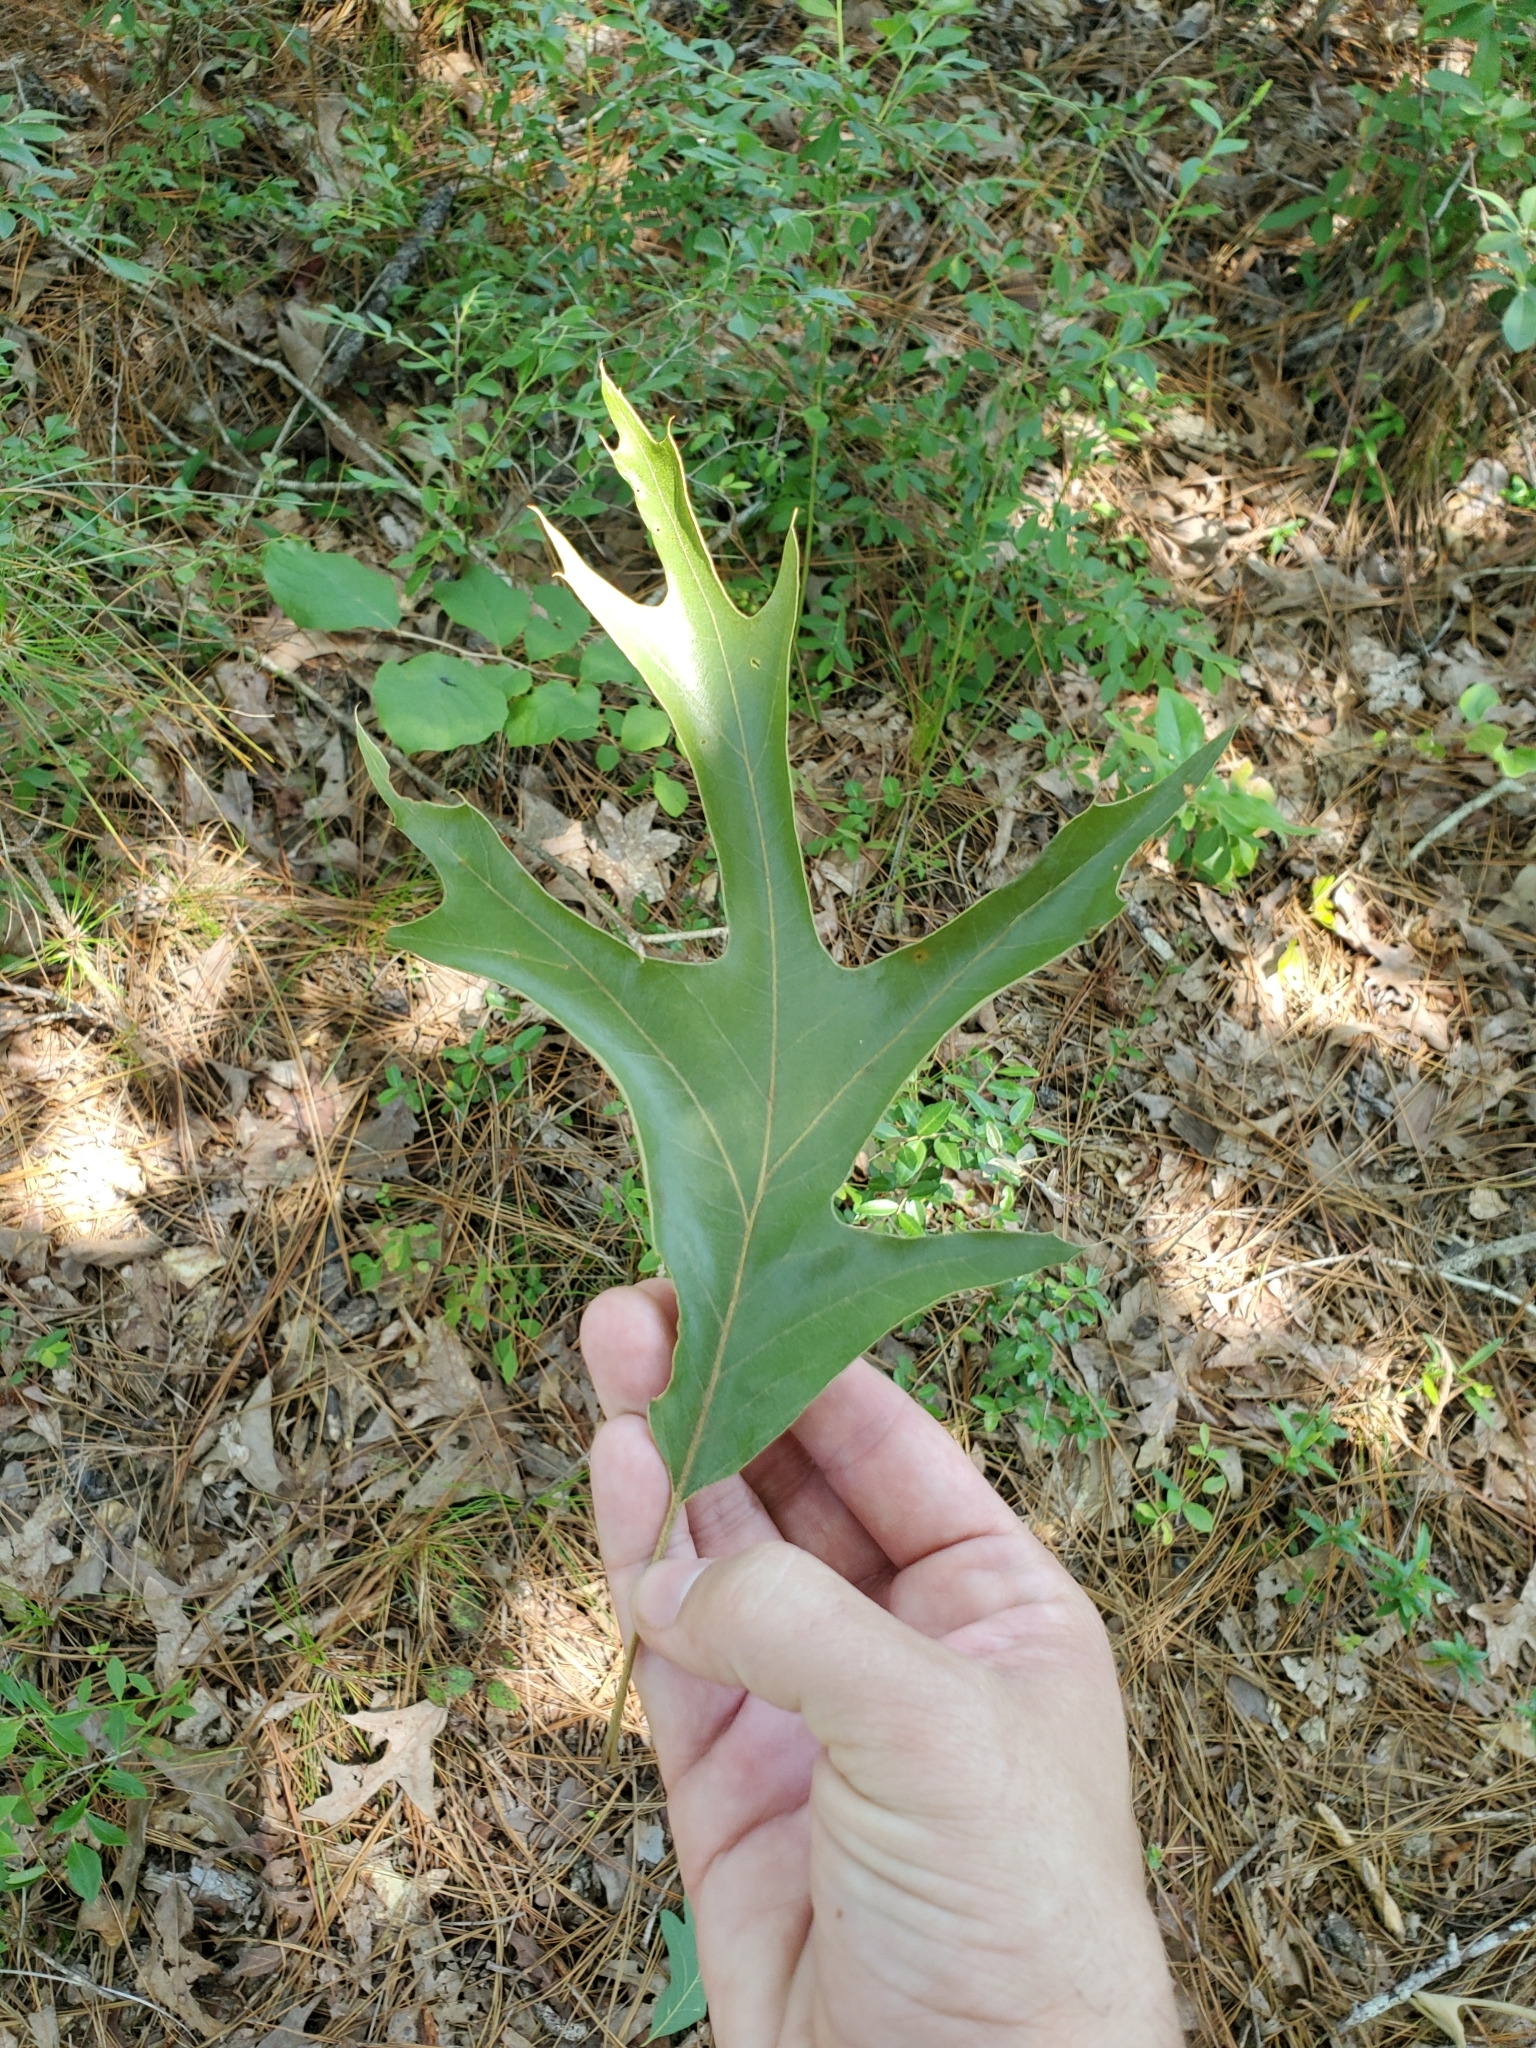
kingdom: Plantae
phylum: Tracheophyta
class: Magnoliopsida
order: Fagales
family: Fagaceae
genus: Quercus
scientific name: Quercus falcata
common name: Southern red oak
